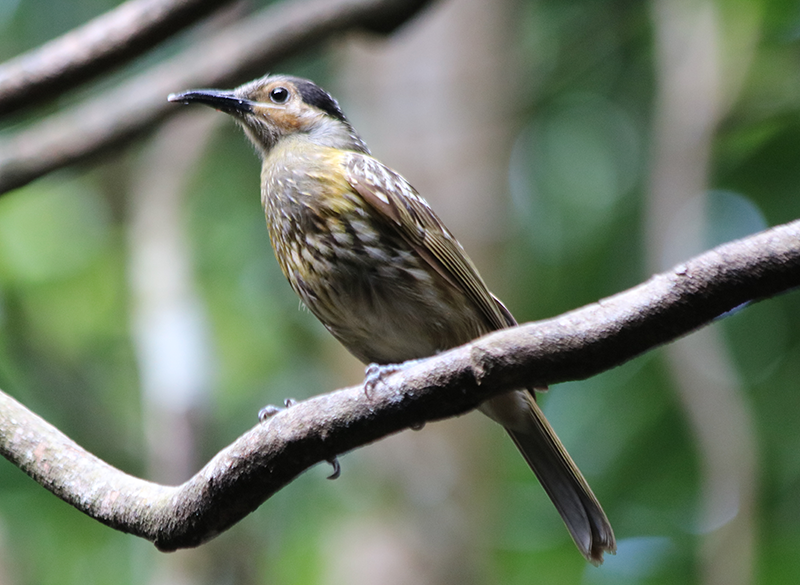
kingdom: Animalia
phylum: Chordata
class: Aves
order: Passeriformes
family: Meliphagidae
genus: Xanthotis
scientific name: Xanthotis macleayanus
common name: Macleay's honeyeater
